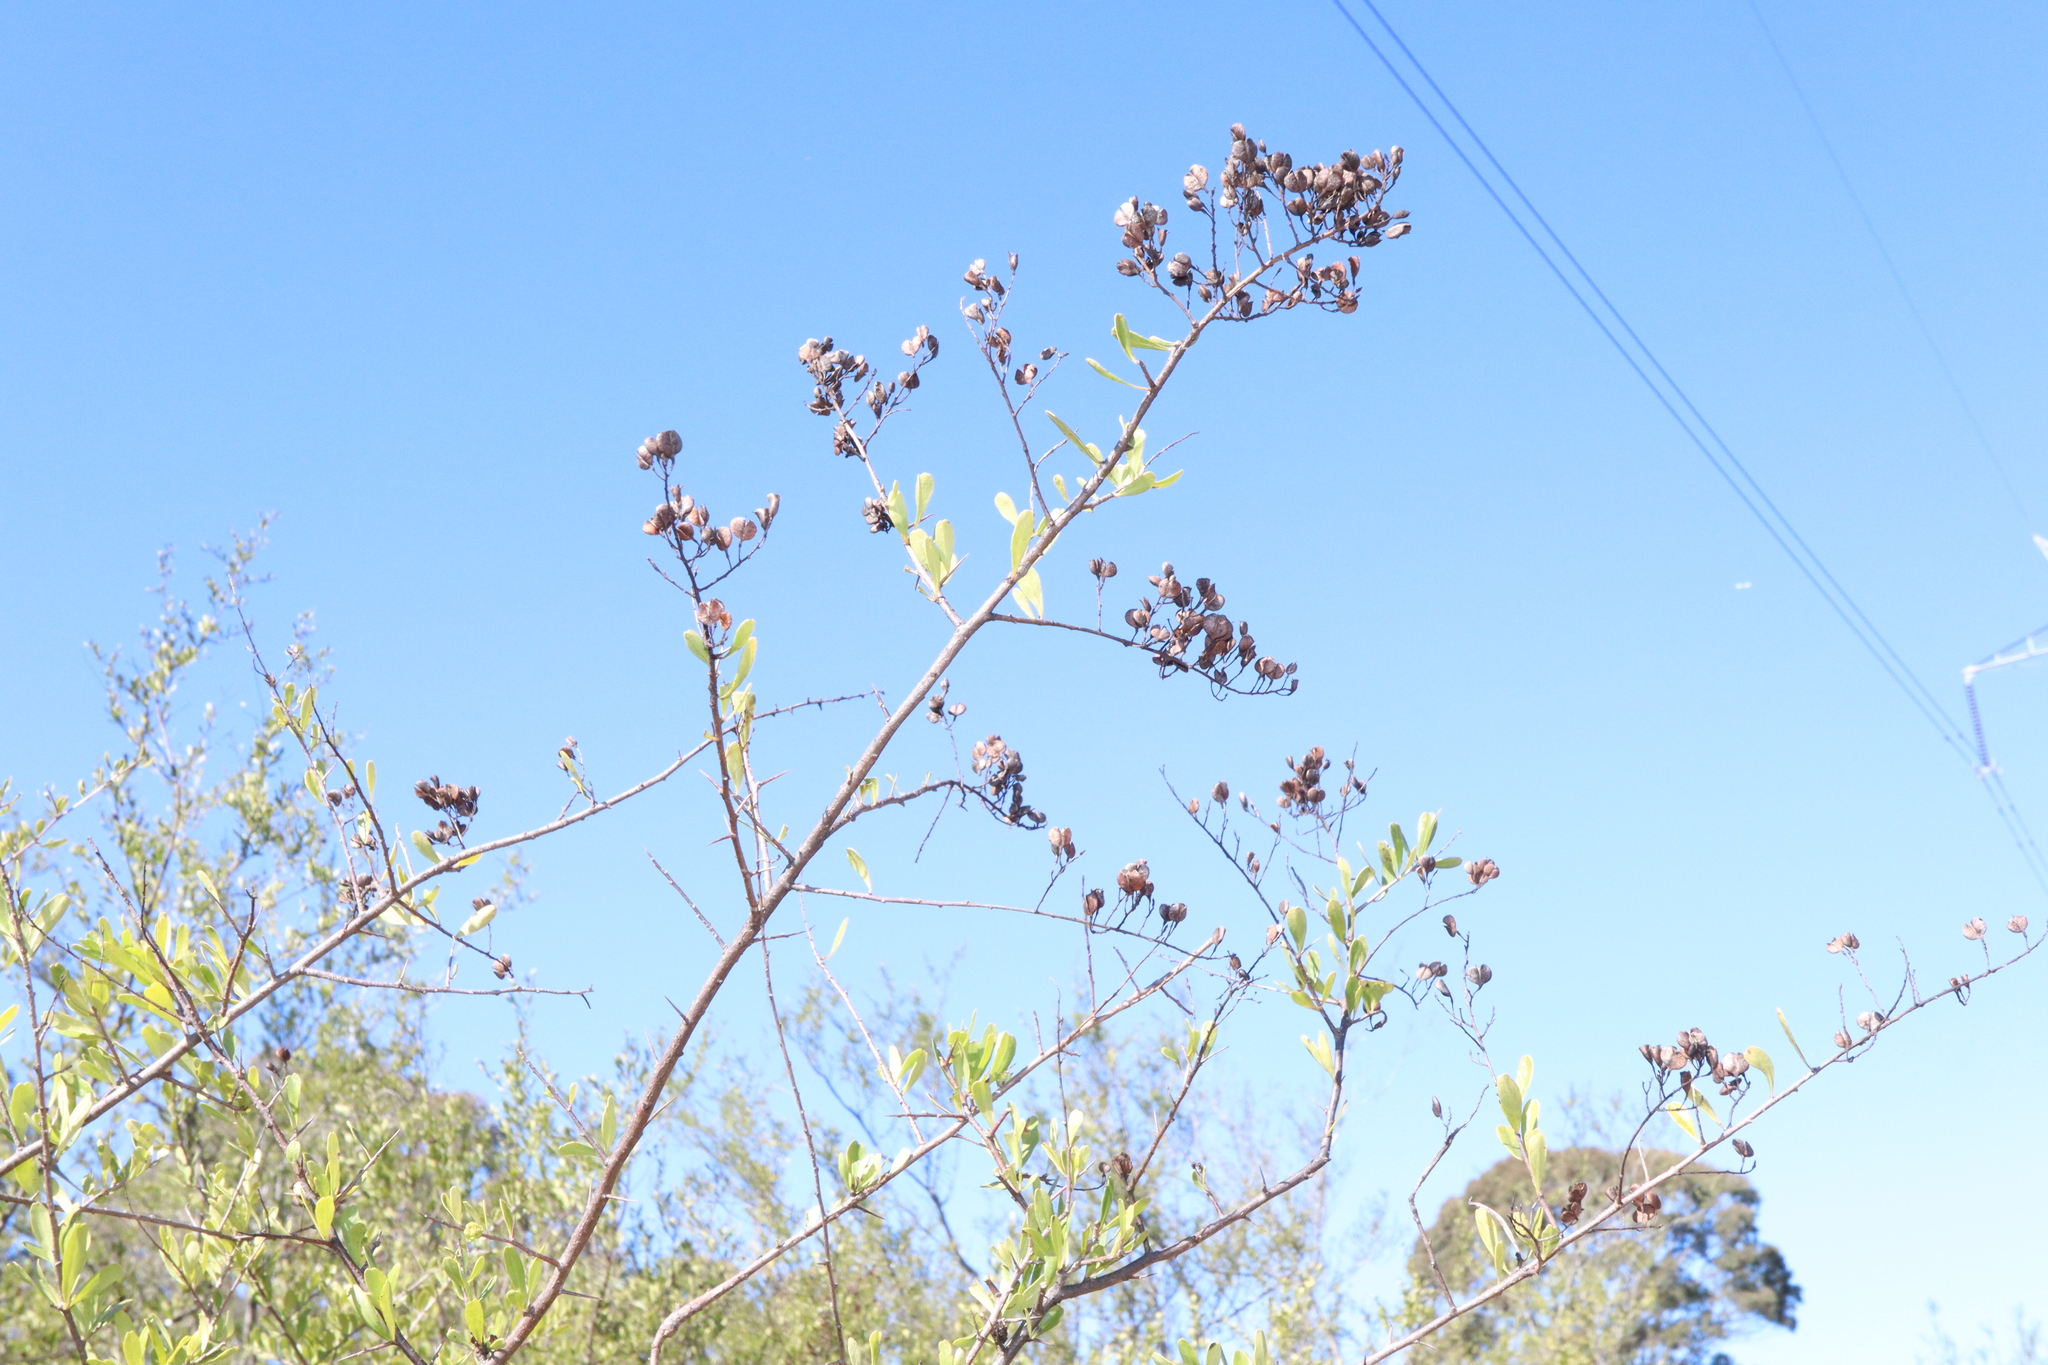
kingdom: Plantae
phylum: Tracheophyta
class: Magnoliopsida
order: Apiales
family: Pittosporaceae
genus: Bursaria
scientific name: Bursaria spinosa
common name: Australian blackthorn
